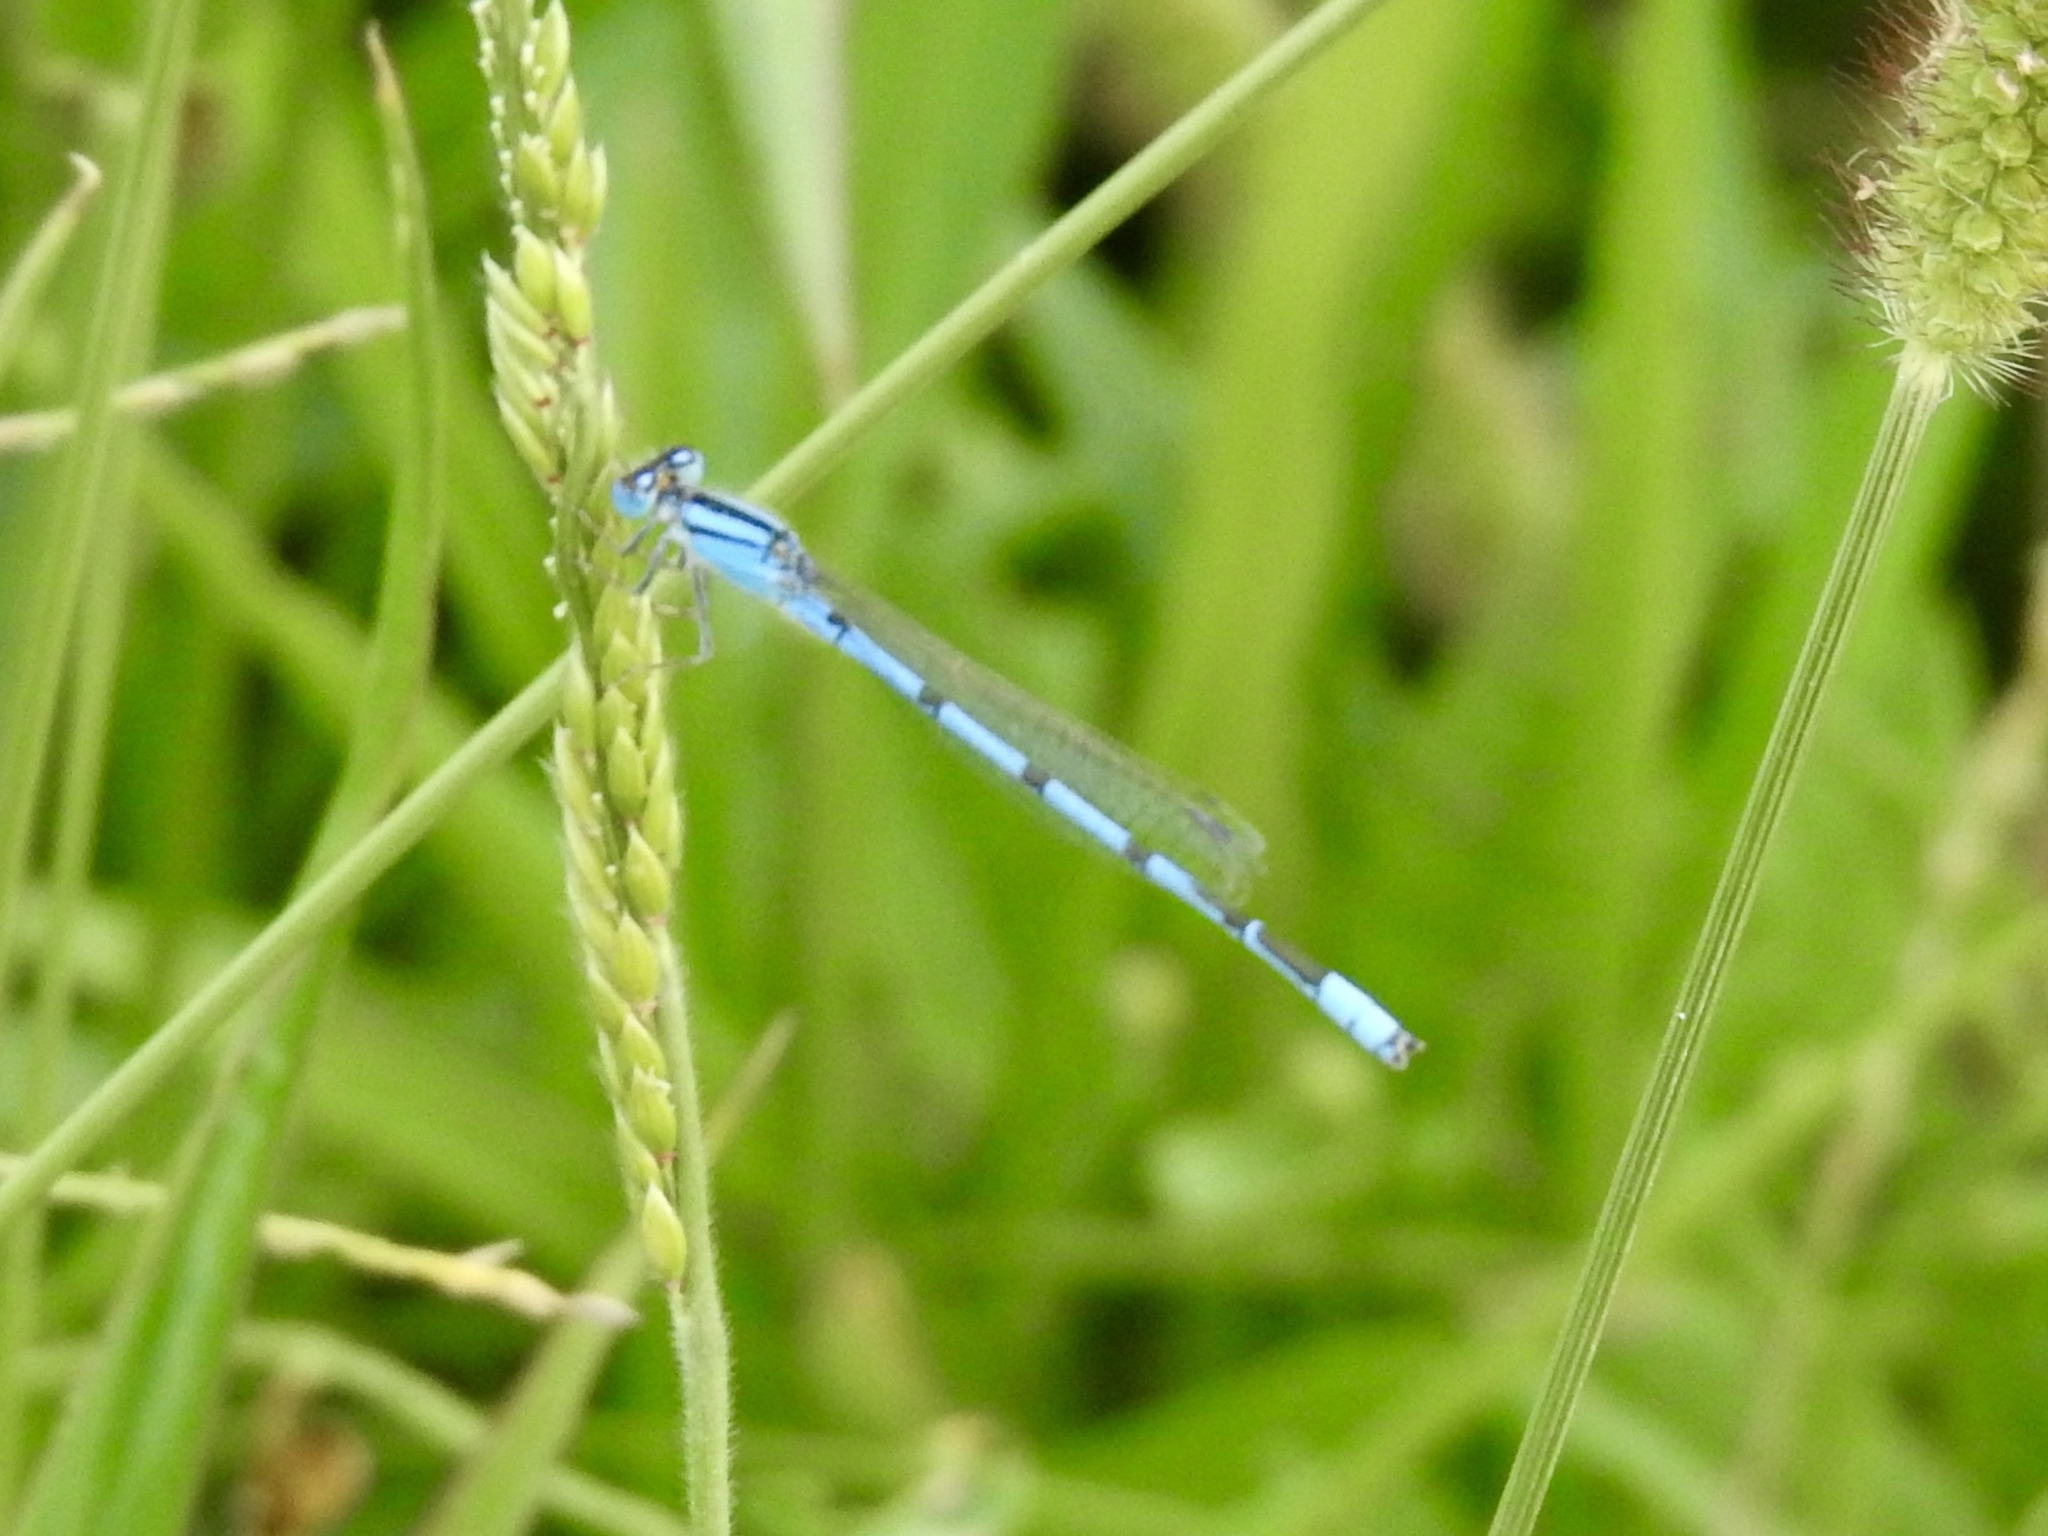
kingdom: Animalia
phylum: Arthropoda
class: Insecta
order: Odonata
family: Coenagrionidae
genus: Enallagma
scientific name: Enallagma civile
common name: Damselfly
